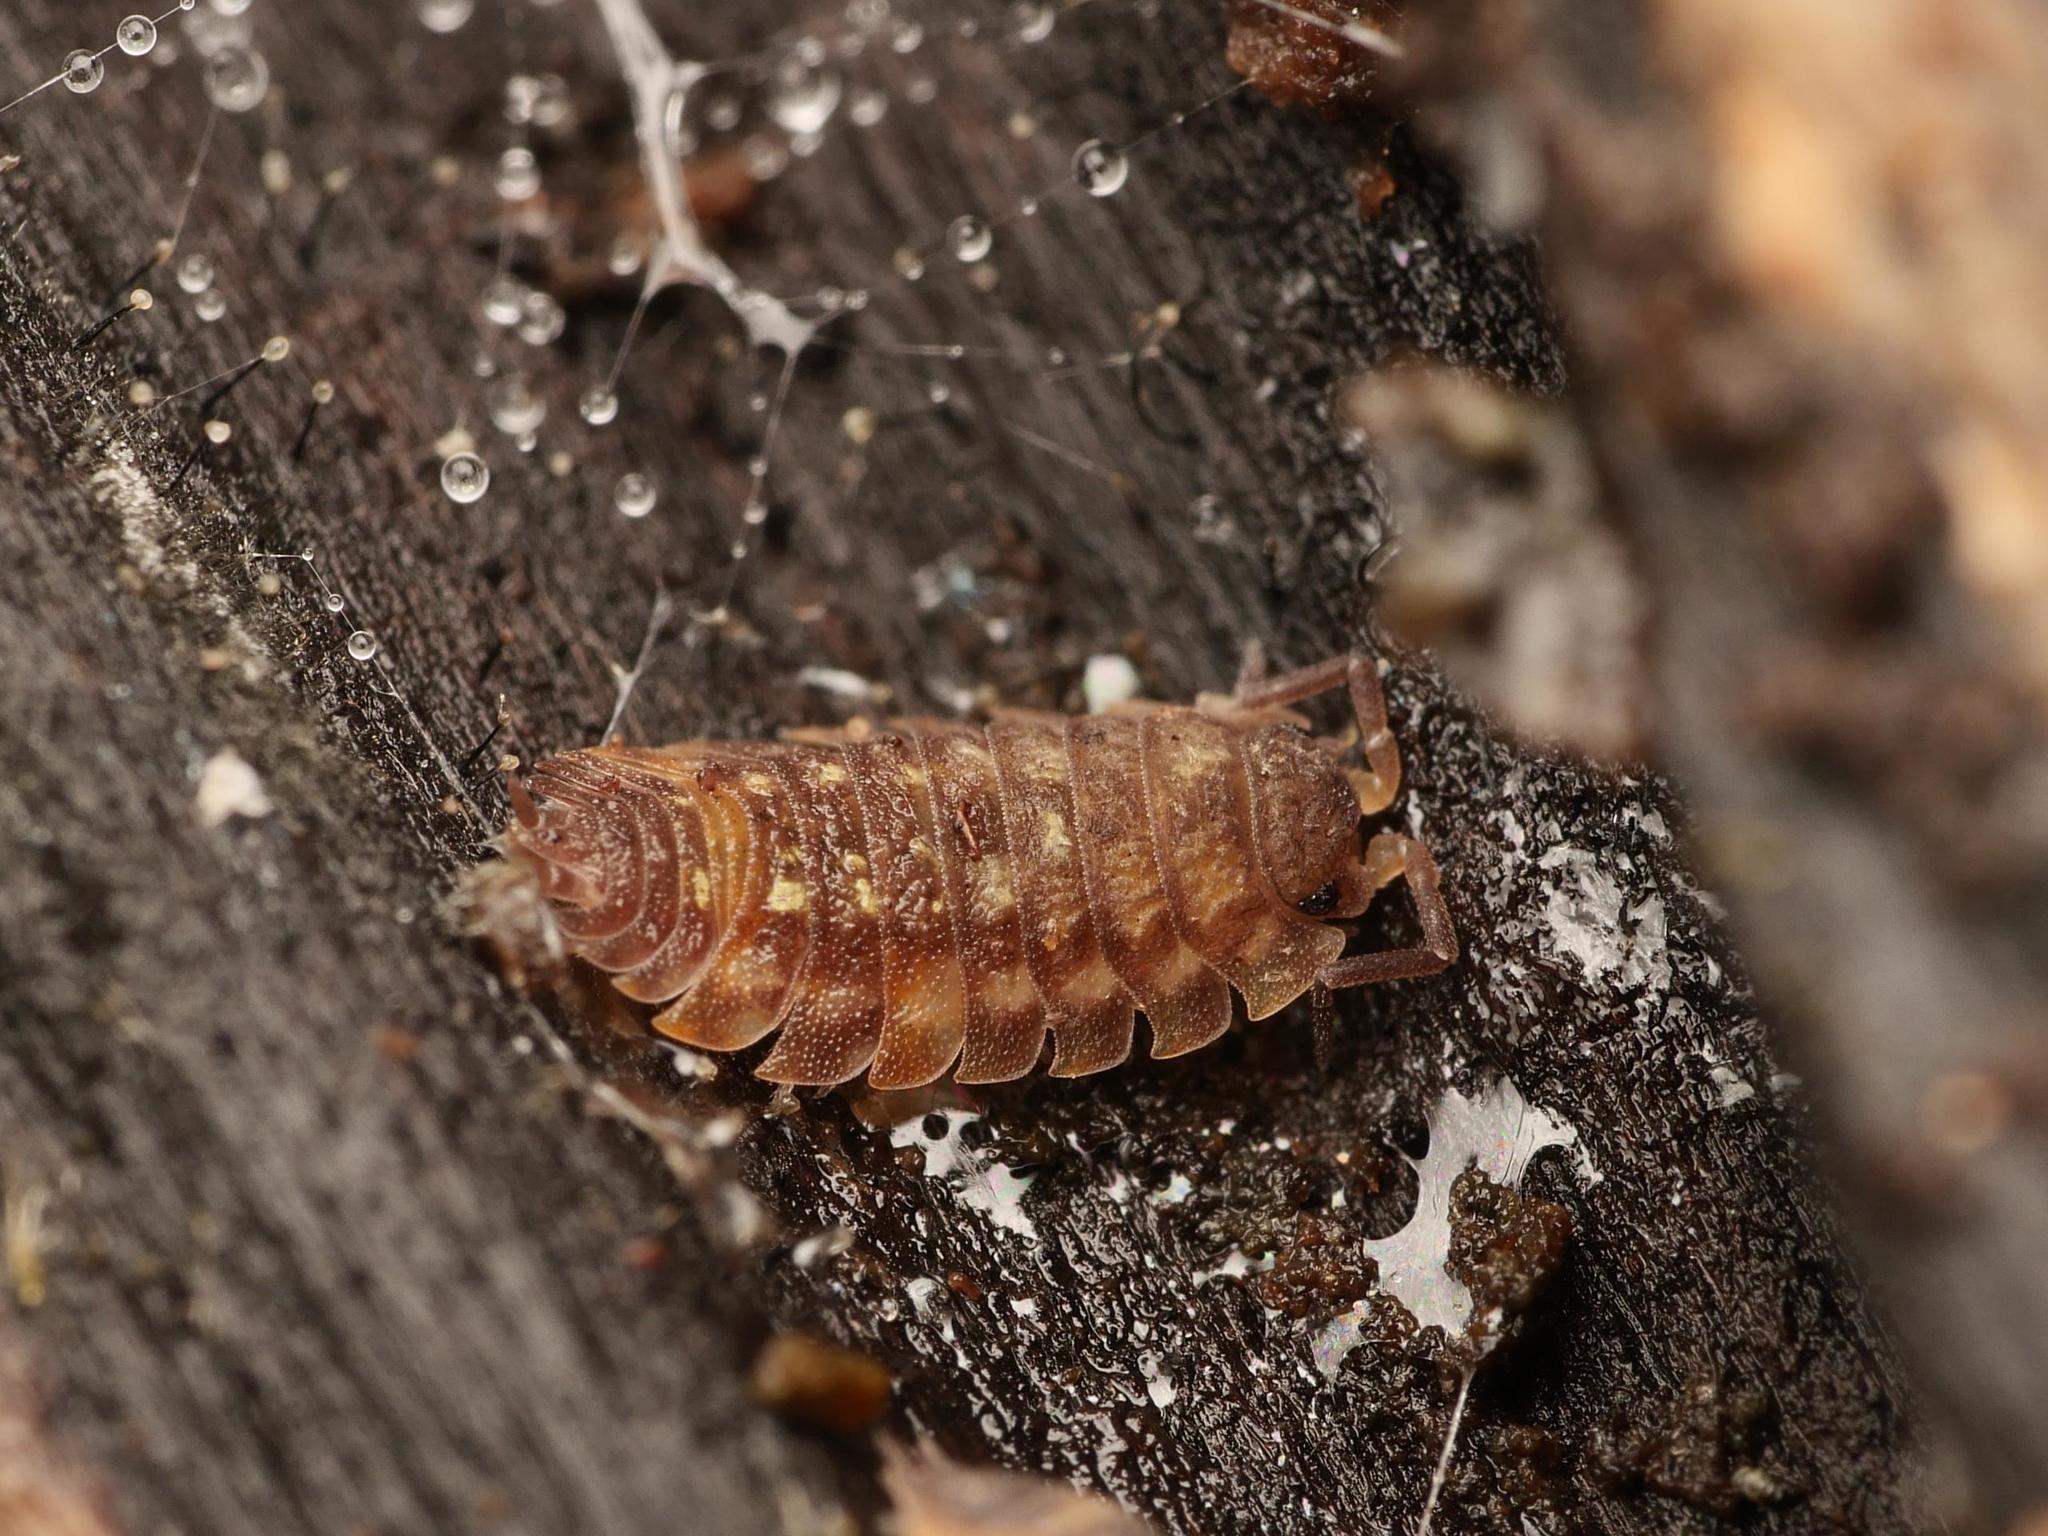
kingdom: Animalia
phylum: Arthropoda
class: Malacostraca
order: Isopoda
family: Oniscidae
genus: Oniscus
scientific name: Oniscus asellus
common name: Common shiny woodlouse
